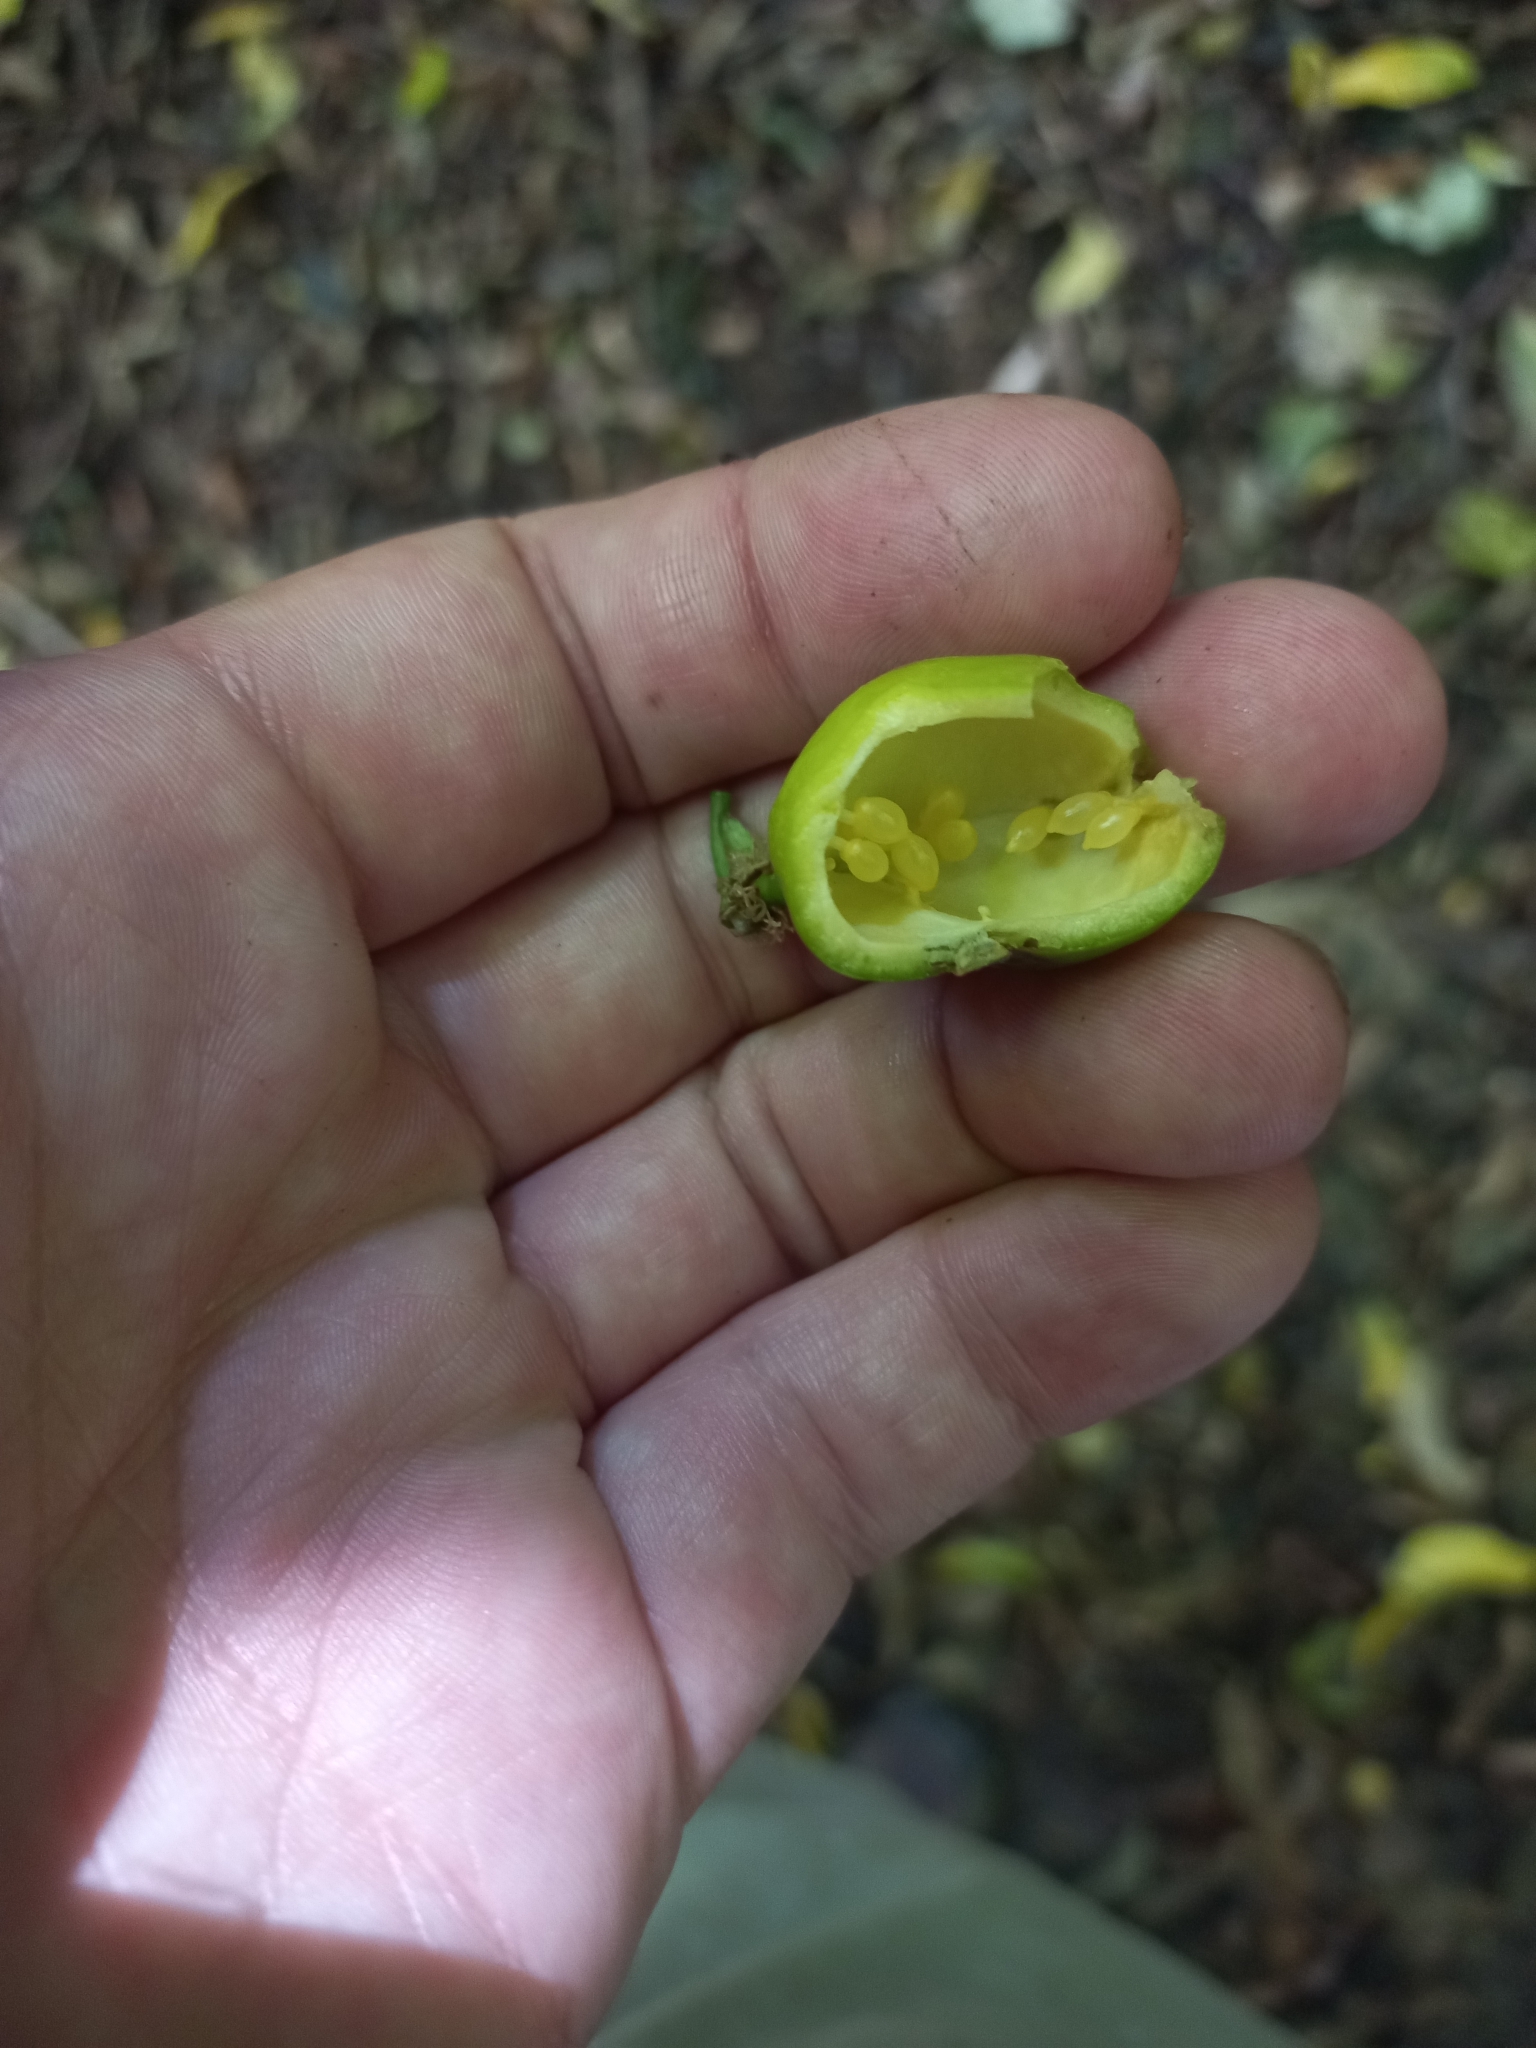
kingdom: Plantae
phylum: Tracheophyta
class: Magnoliopsida
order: Malpighiales
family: Passifloraceae
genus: Passiflora
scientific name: Passiflora tetrandra
